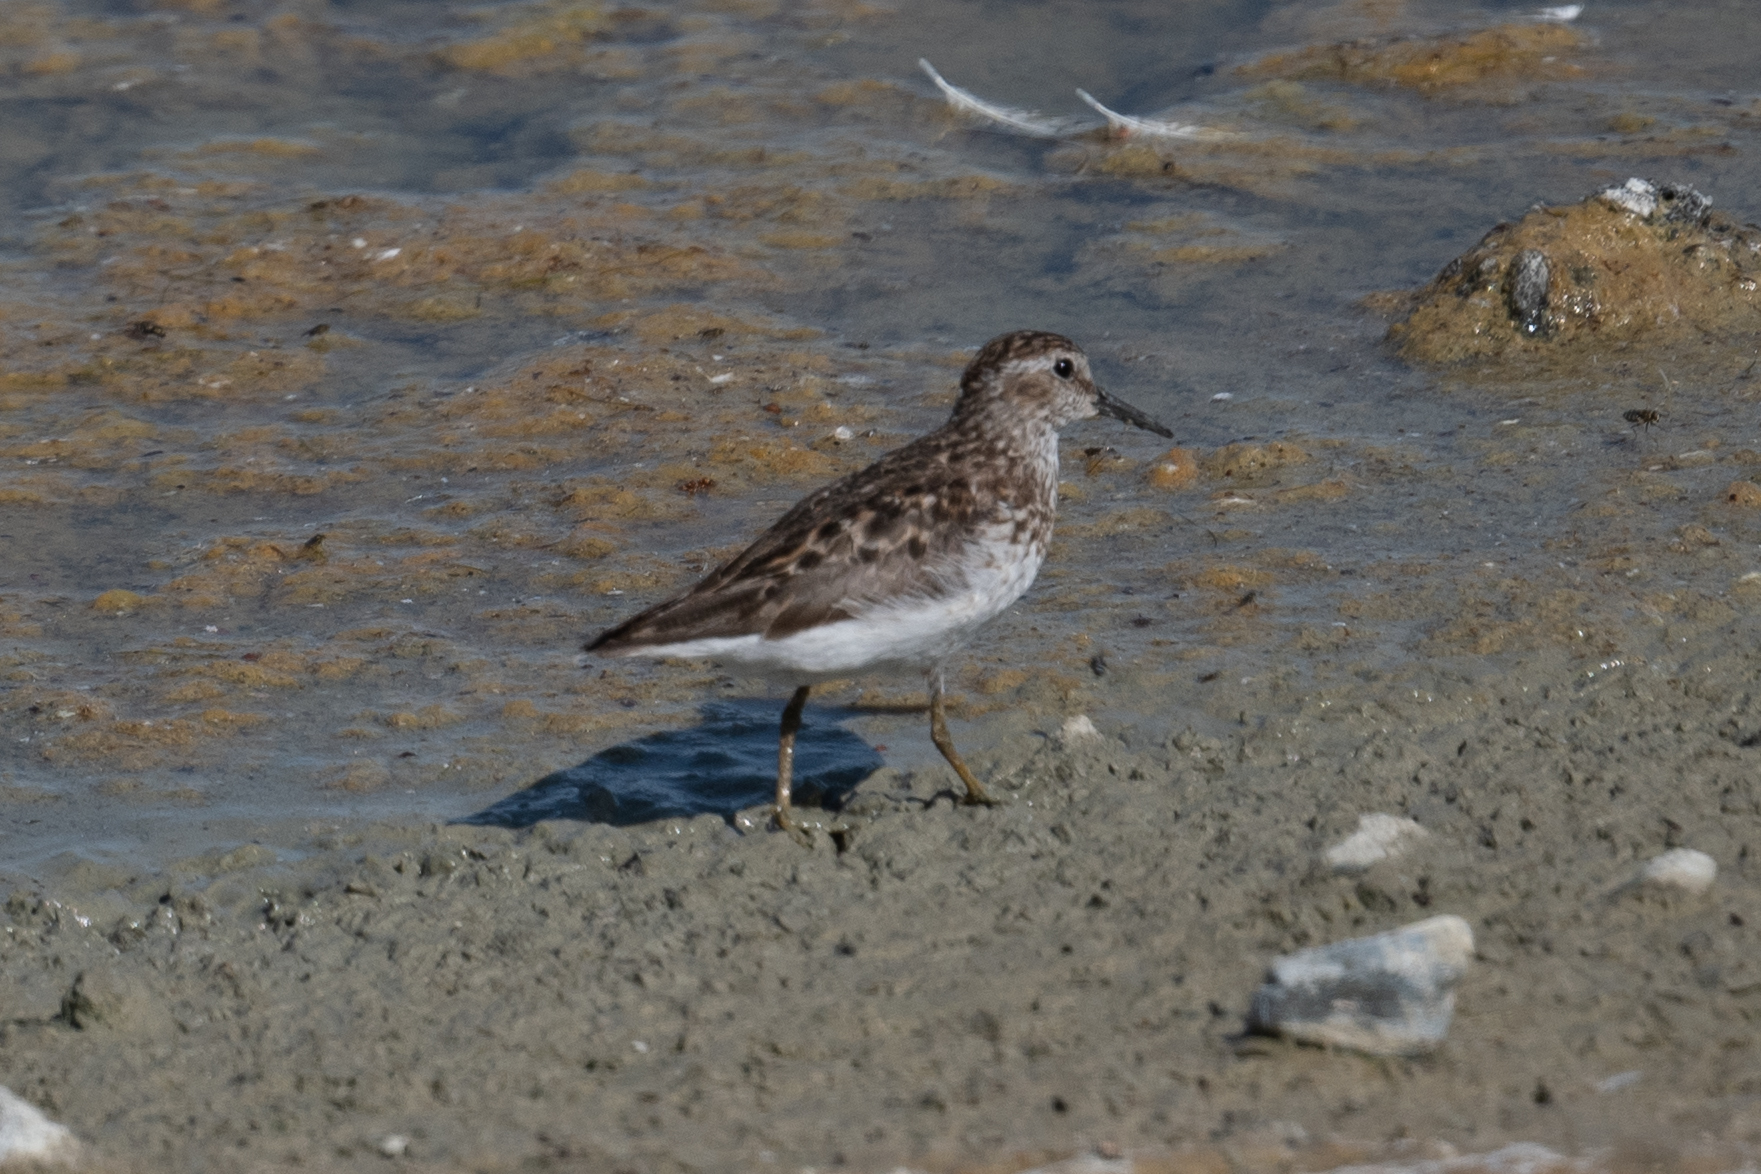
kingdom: Animalia
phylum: Chordata
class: Aves
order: Charadriiformes
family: Scolopacidae
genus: Calidris
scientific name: Calidris minutilla
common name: Least sandpiper
